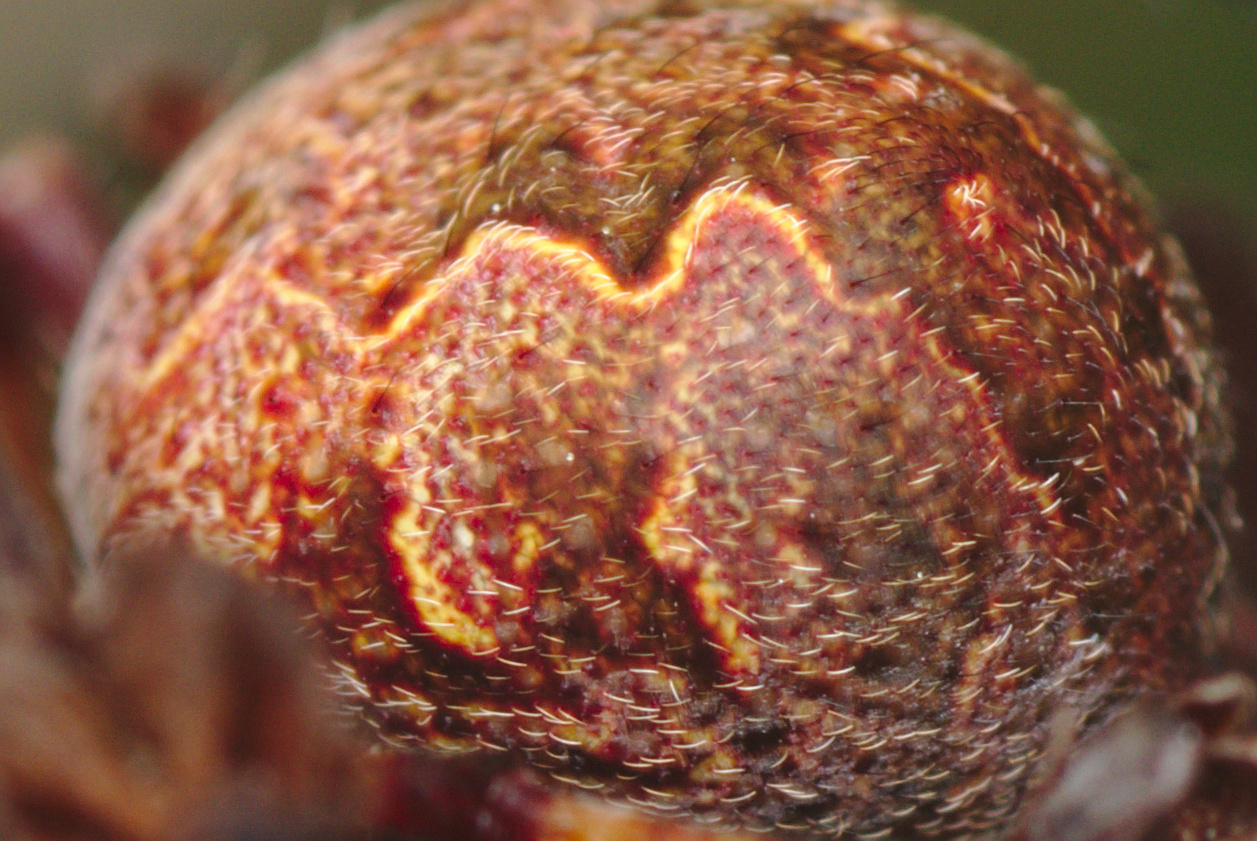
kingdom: Animalia
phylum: Arthropoda
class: Arachnida
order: Araneae
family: Araneidae
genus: Salsa
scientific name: Salsa fuliginata
